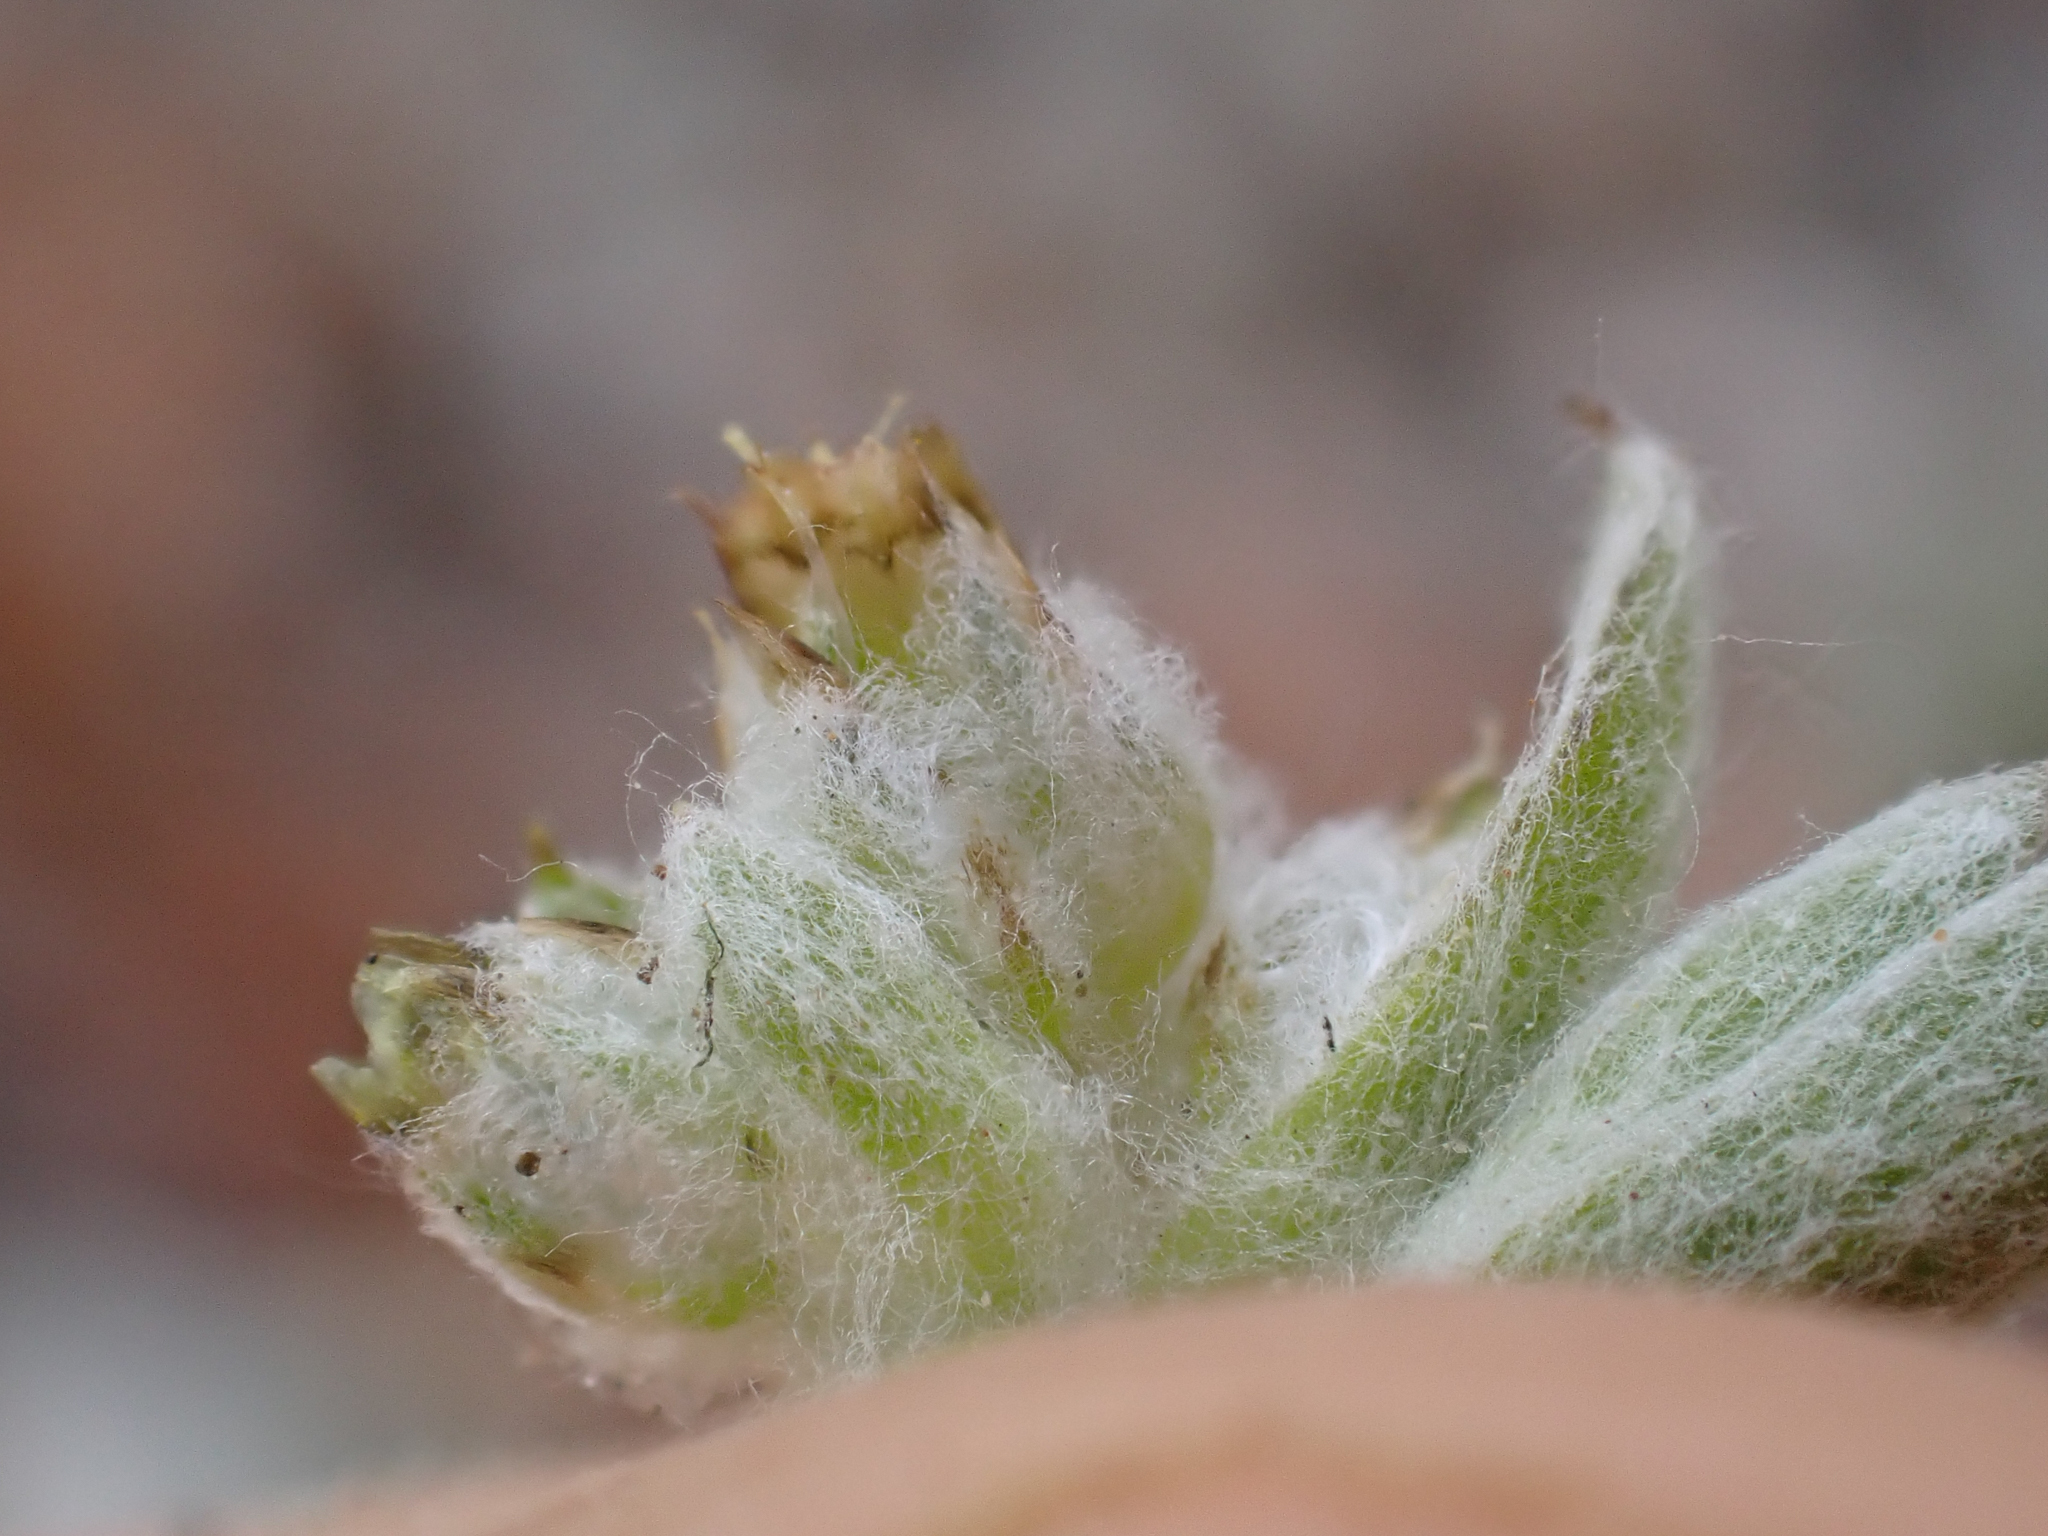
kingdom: Plantae
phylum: Tracheophyta
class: Magnoliopsida
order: Asterales
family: Asteraceae
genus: Logfia
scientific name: Logfia californica
